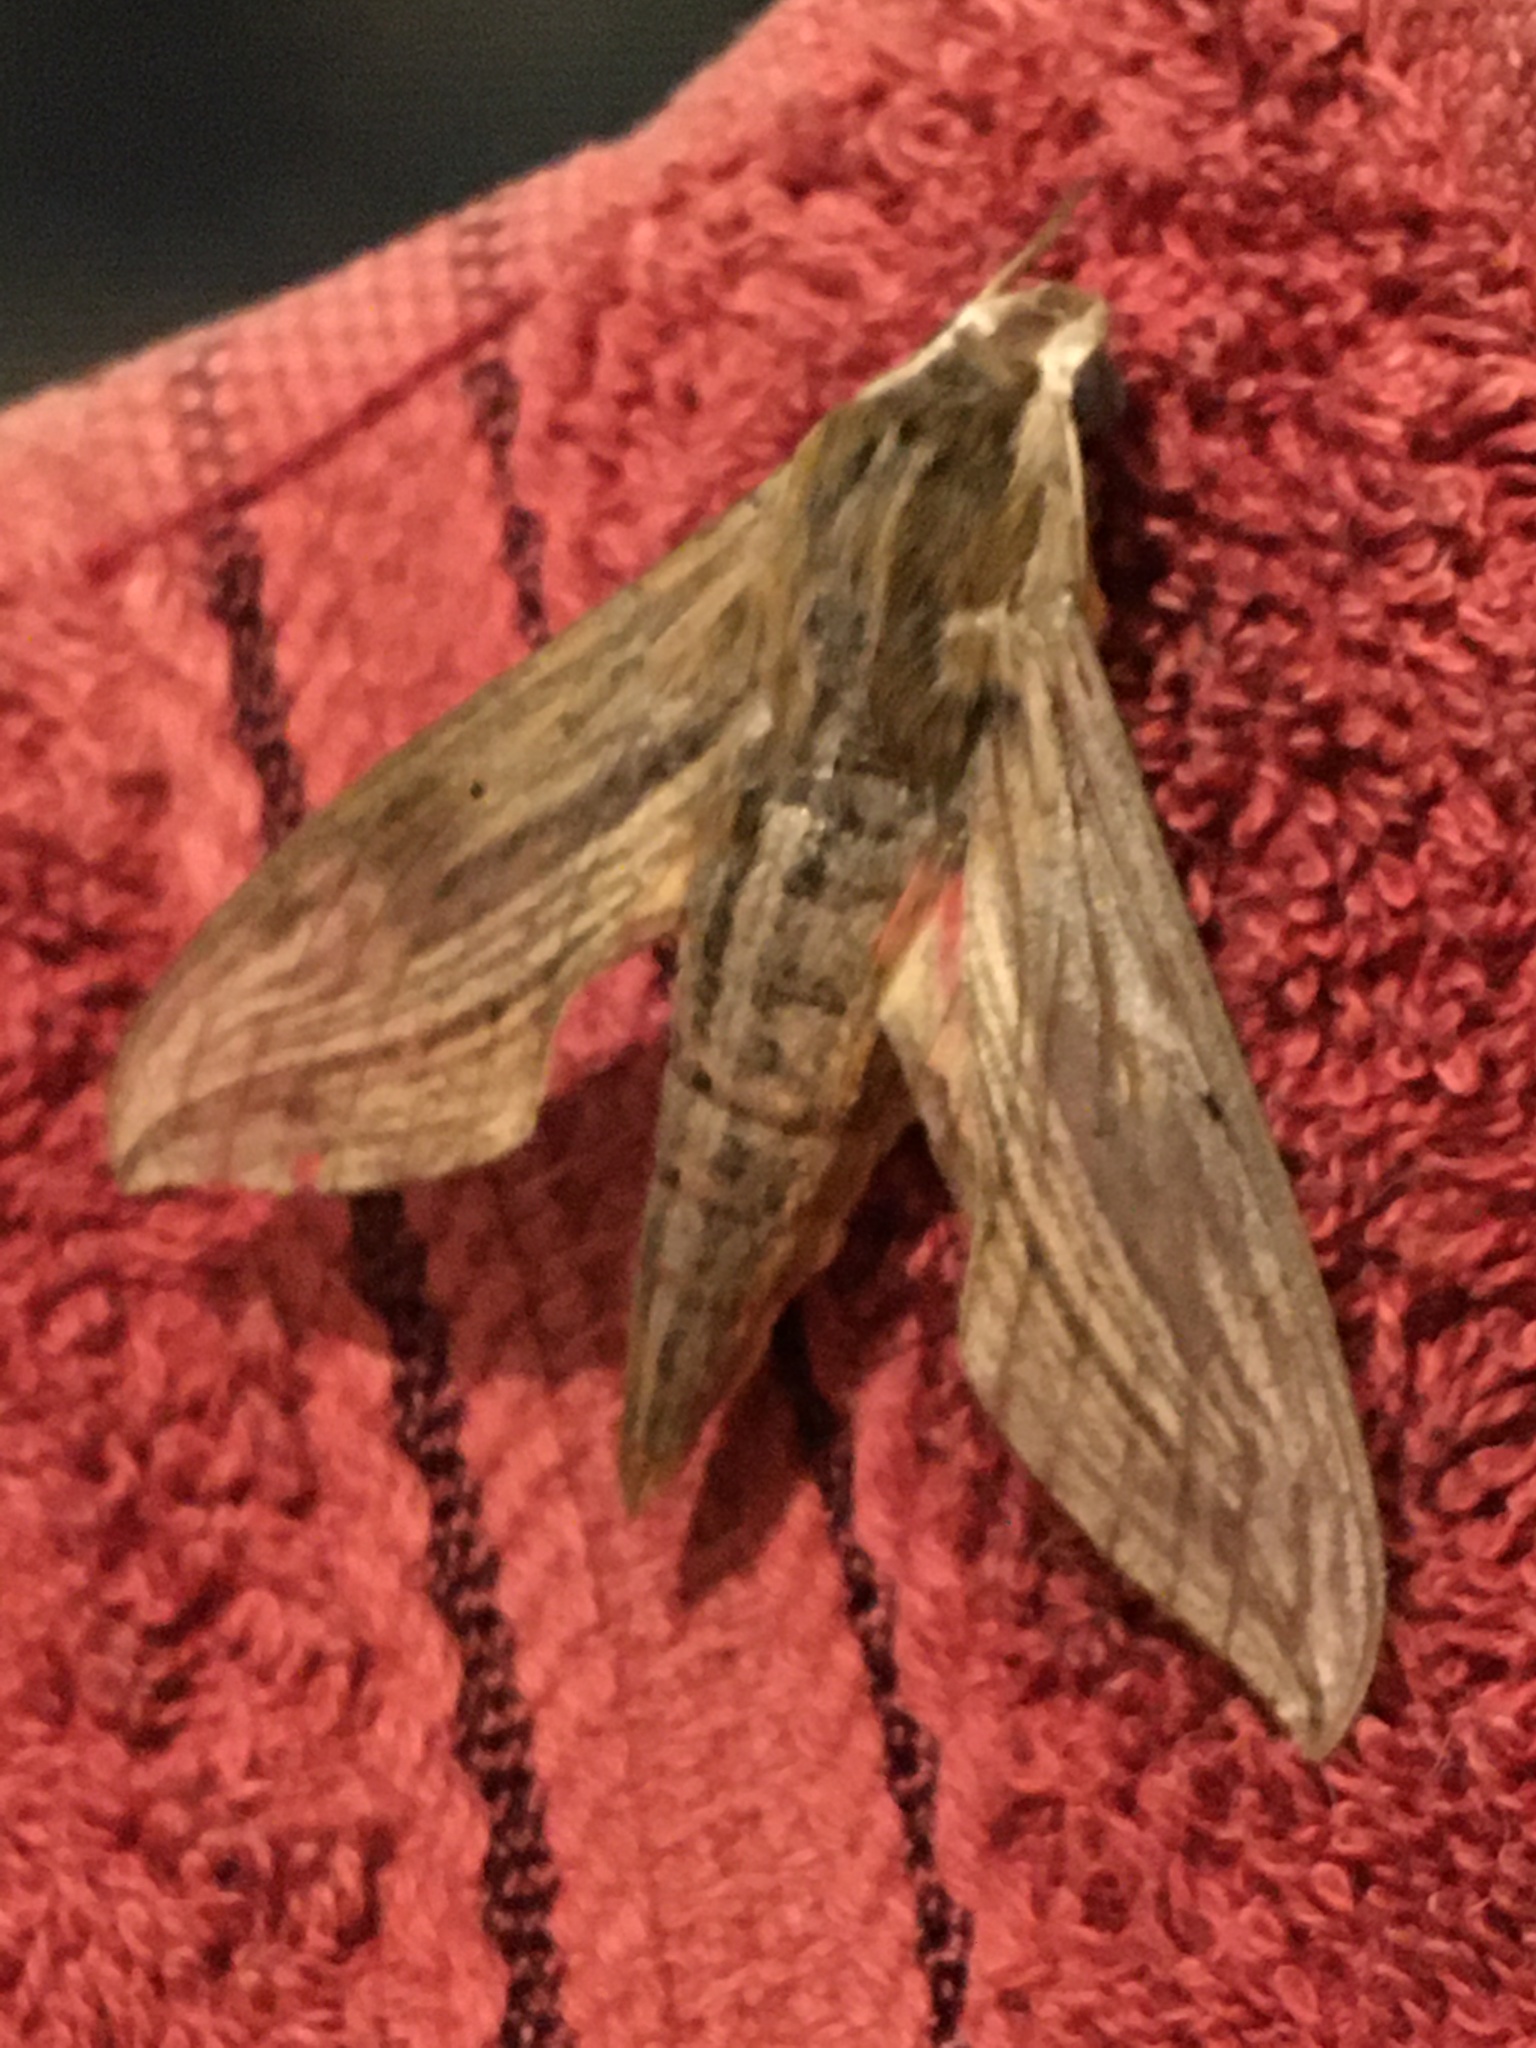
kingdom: Animalia
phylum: Arthropoda
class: Insecta
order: Lepidoptera
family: Sphingidae
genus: Hippotion
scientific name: Hippotion eson
